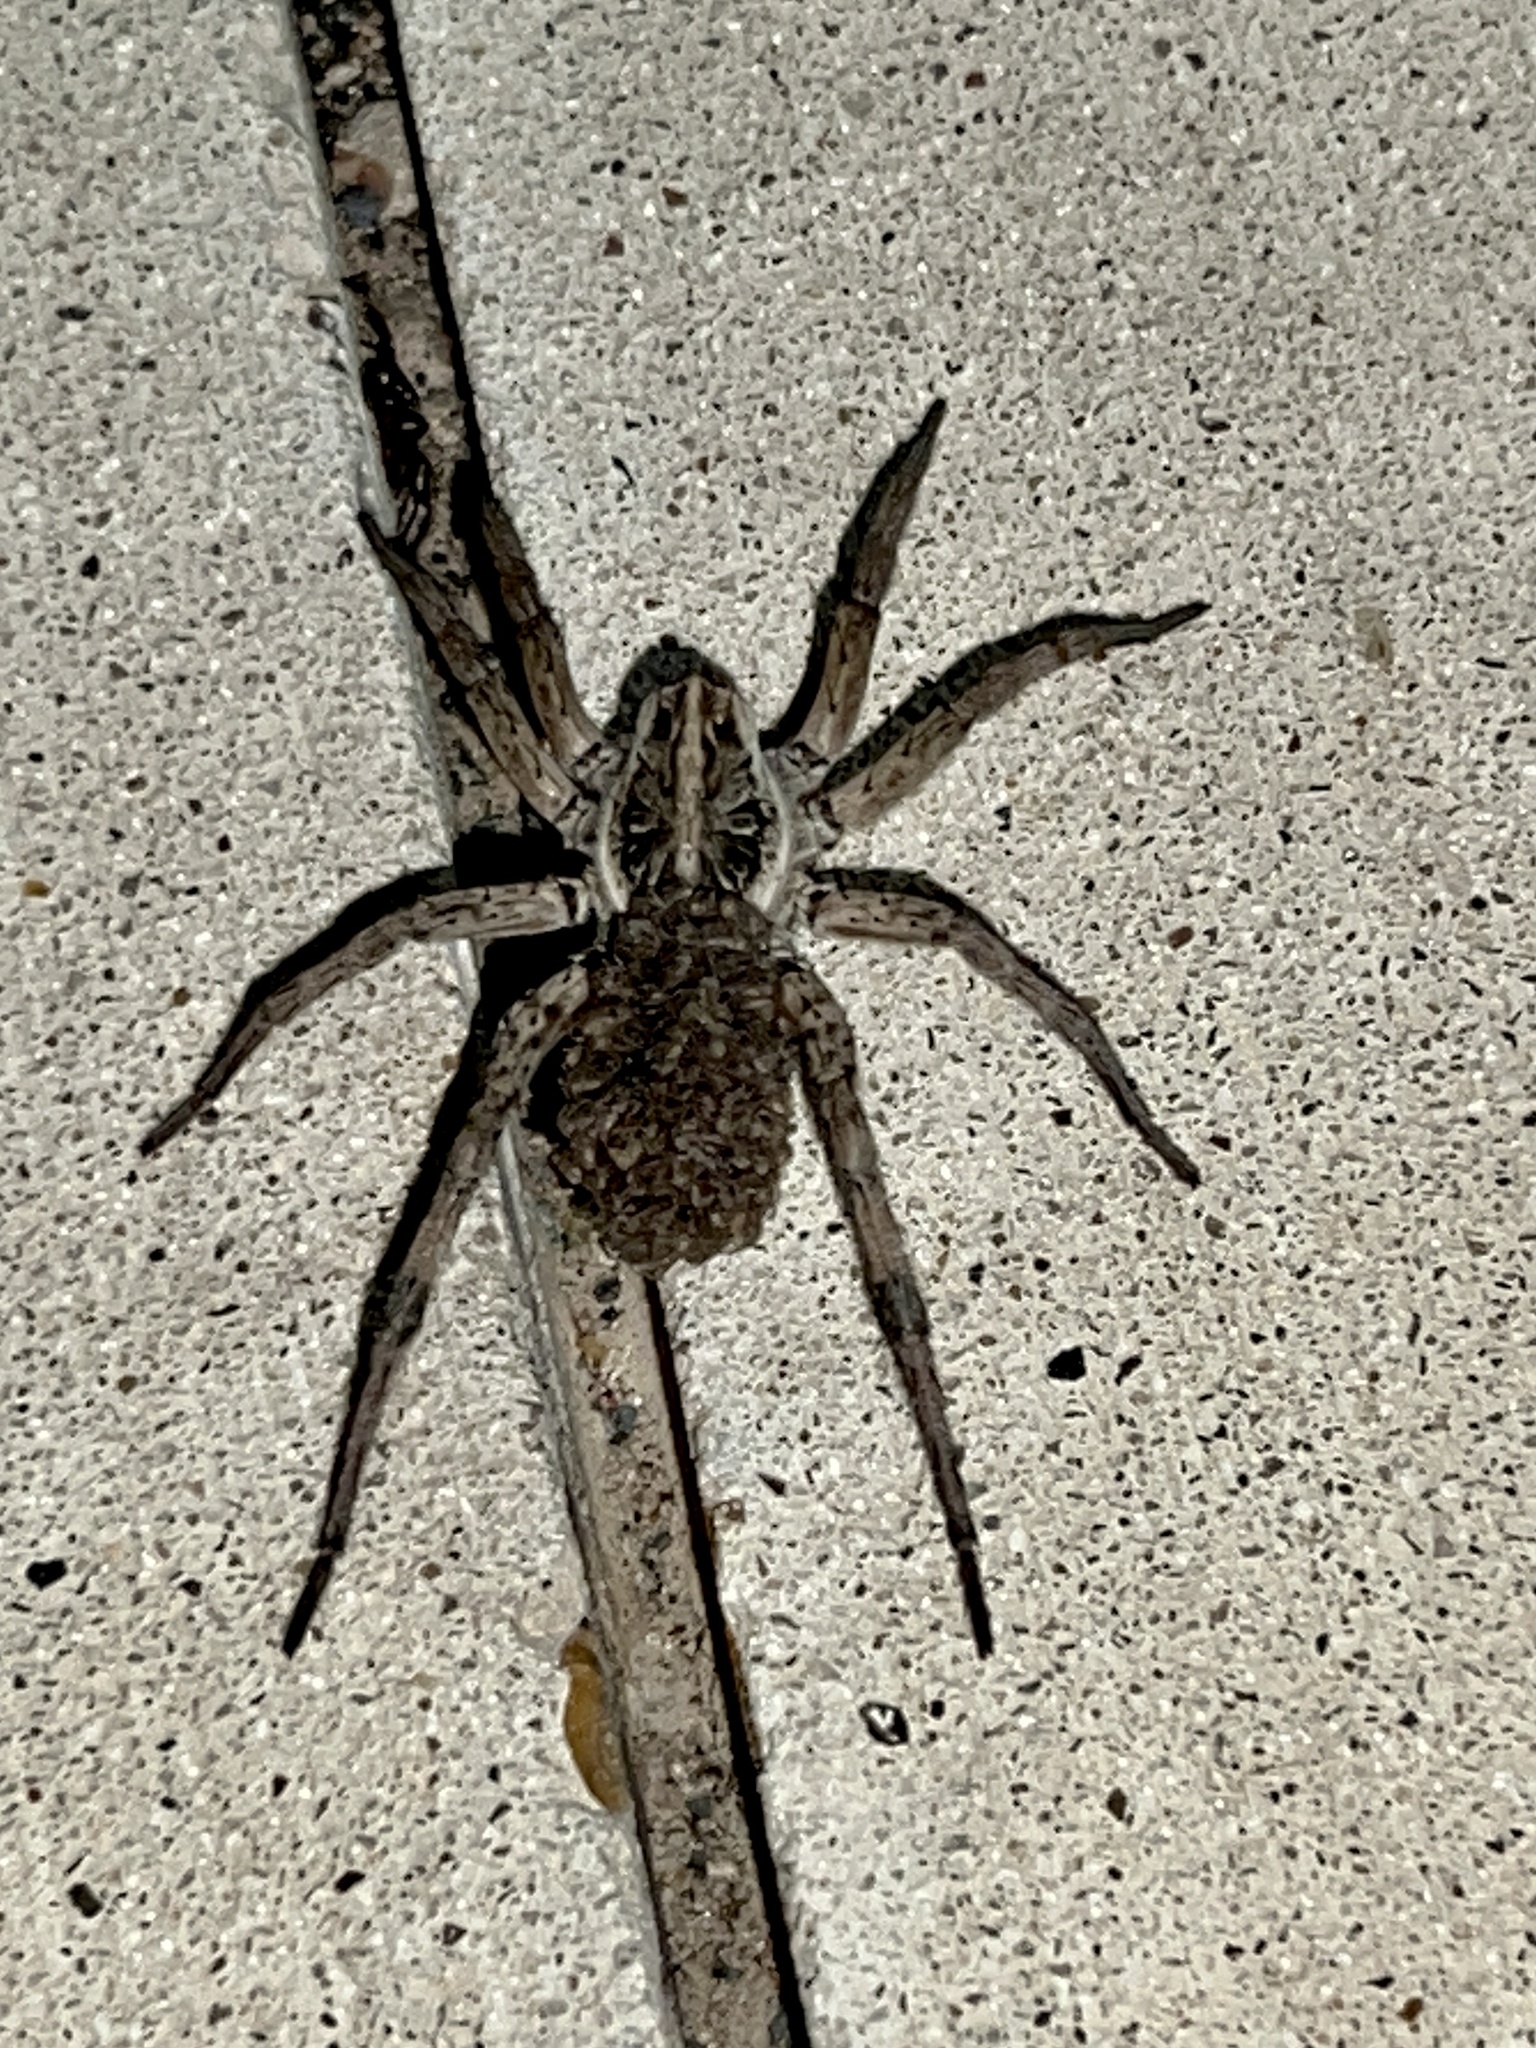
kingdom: Animalia
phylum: Arthropoda
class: Arachnida
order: Araneae
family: Lycosidae
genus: Hogna
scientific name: Hogna antelucana
